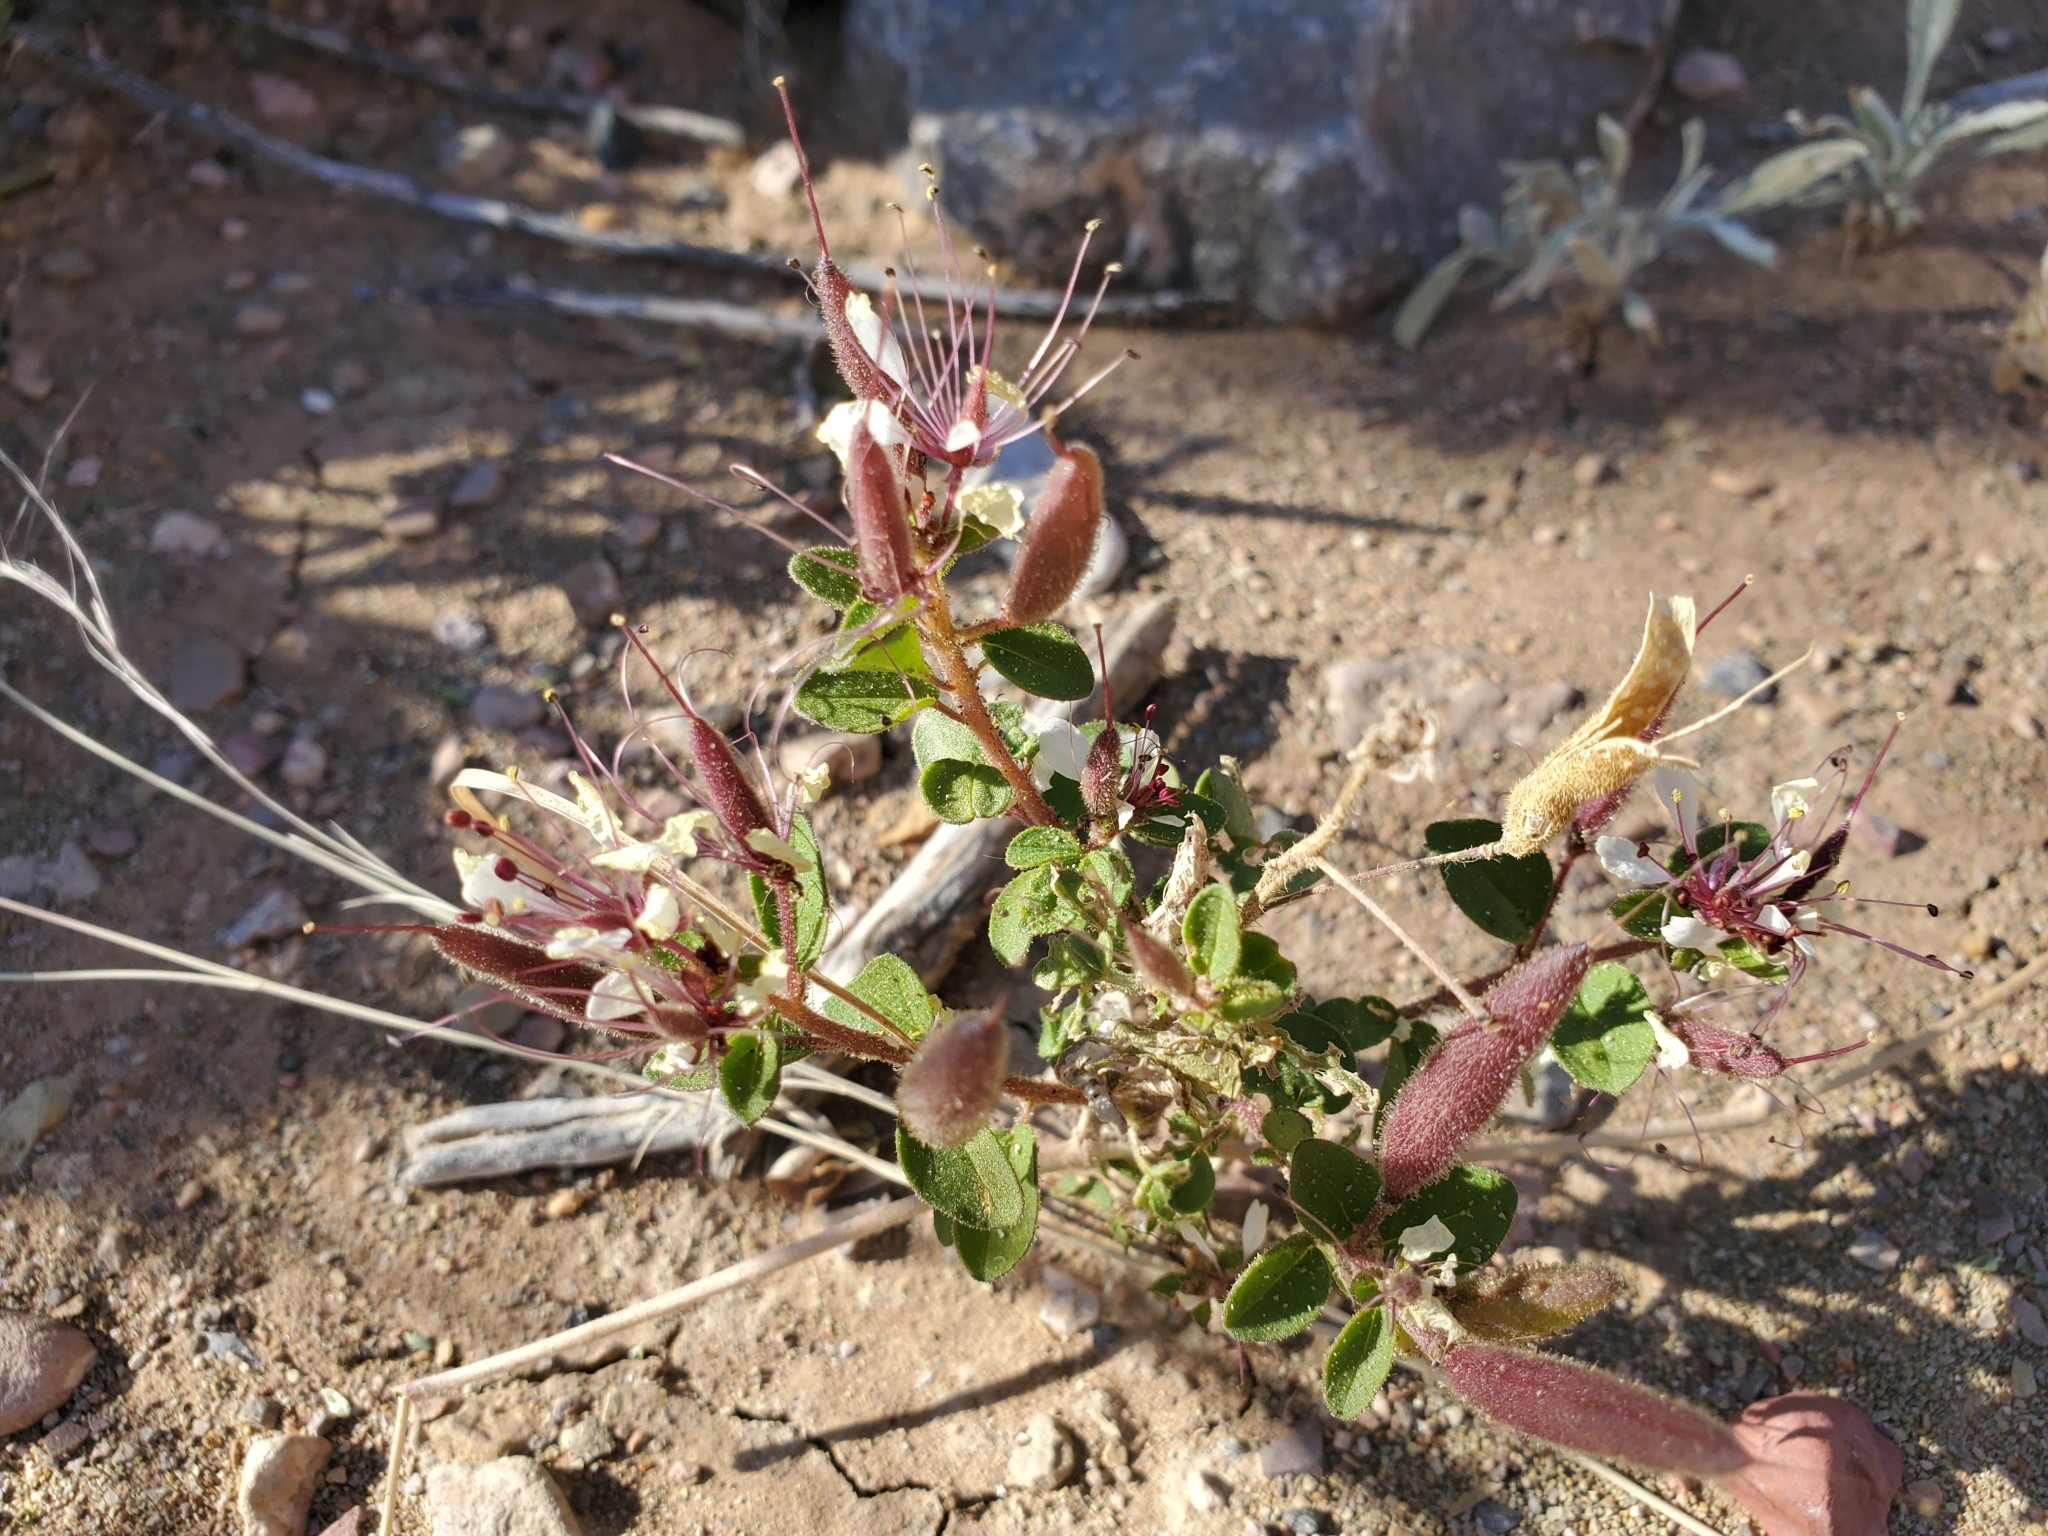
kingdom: Plantae
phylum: Tracheophyta
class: Magnoliopsida
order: Brassicales
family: Cleomaceae
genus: Polanisia
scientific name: Polanisia dodecandra
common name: Clammyweed
